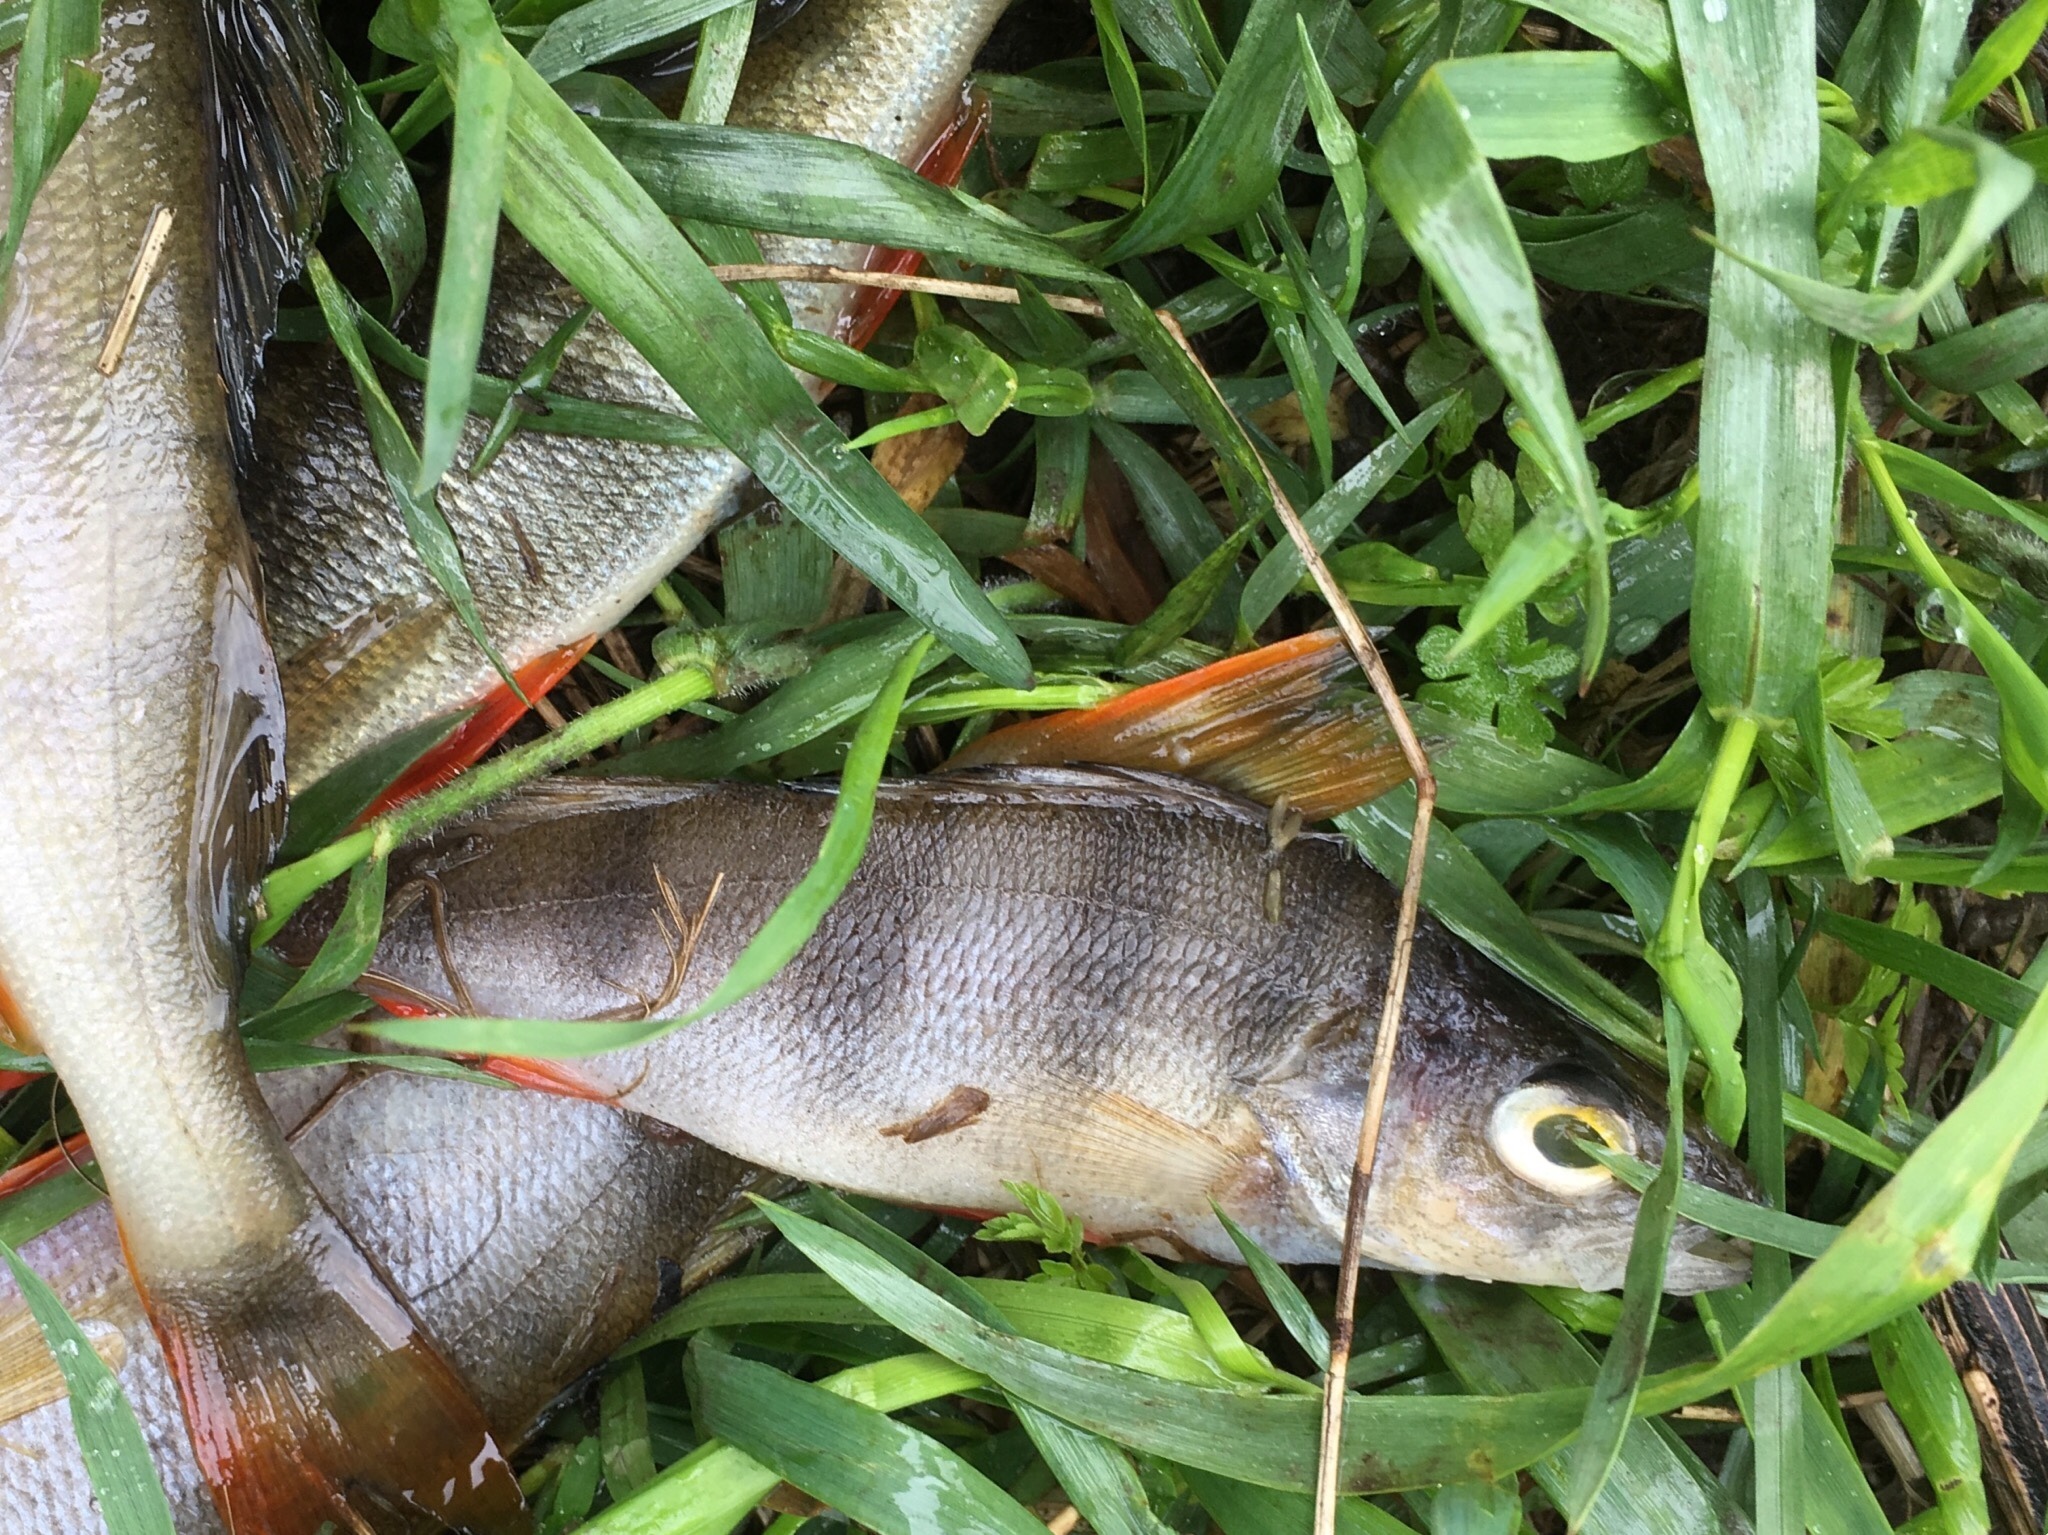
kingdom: Animalia
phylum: Chordata
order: Perciformes
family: Percidae
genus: Perca
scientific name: Perca fluviatilis
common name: Perch
